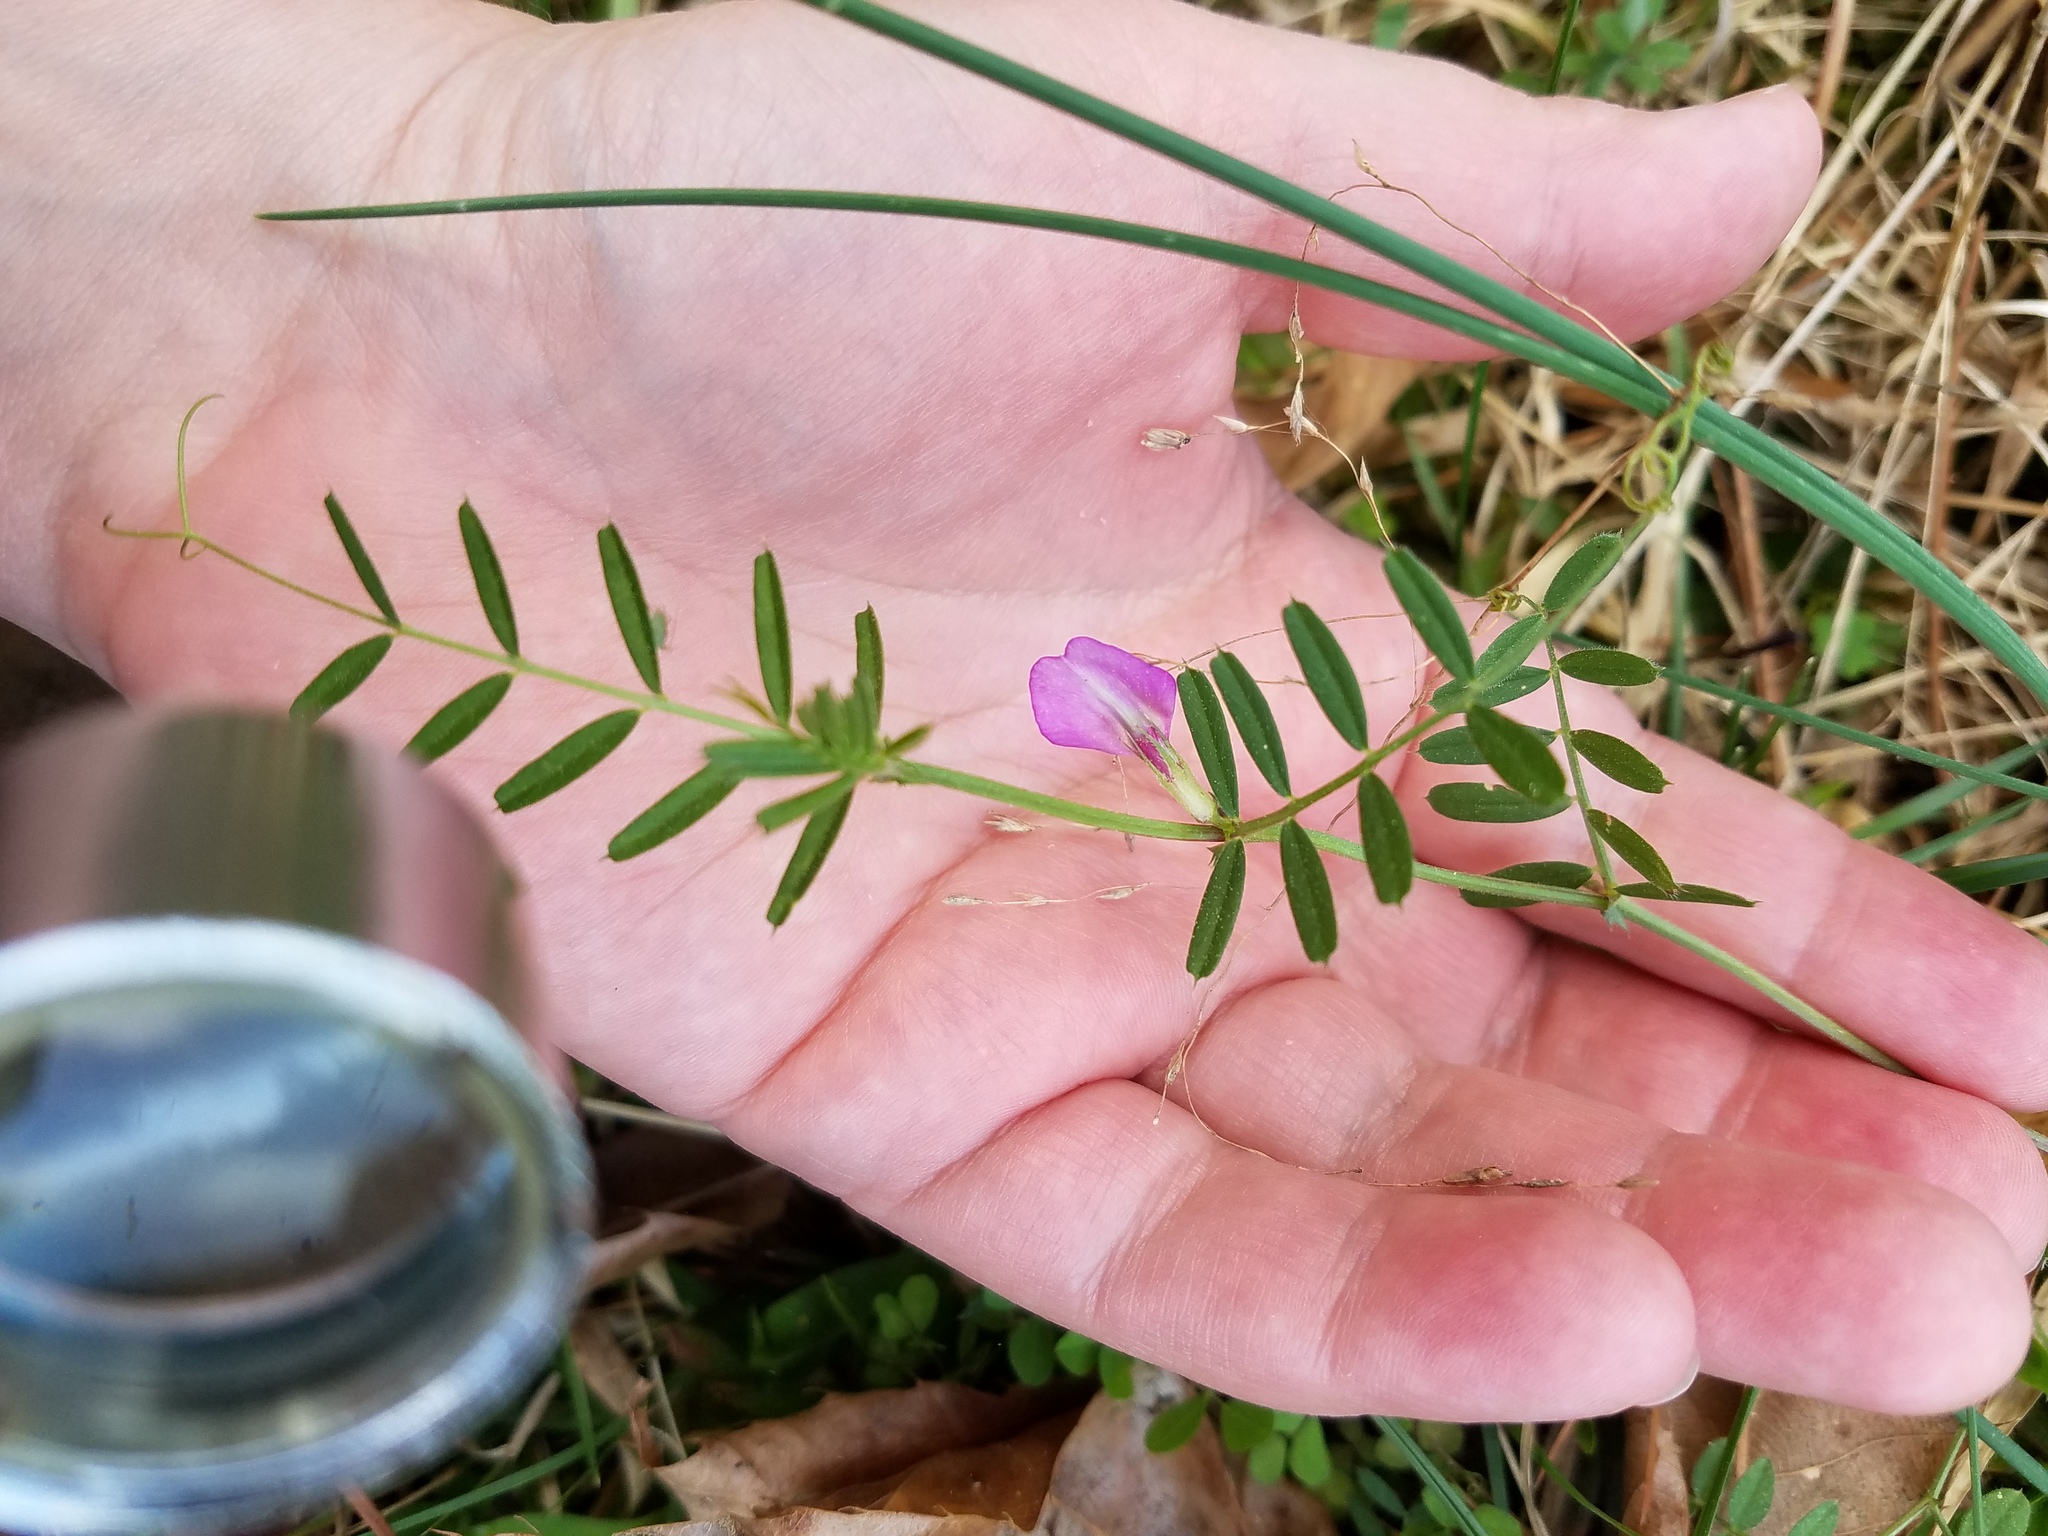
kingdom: Plantae
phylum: Tracheophyta
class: Magnoliopsida
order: Fabales
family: Fabaceae
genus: Vicia
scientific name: Vicia sativa
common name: Garden vetch
